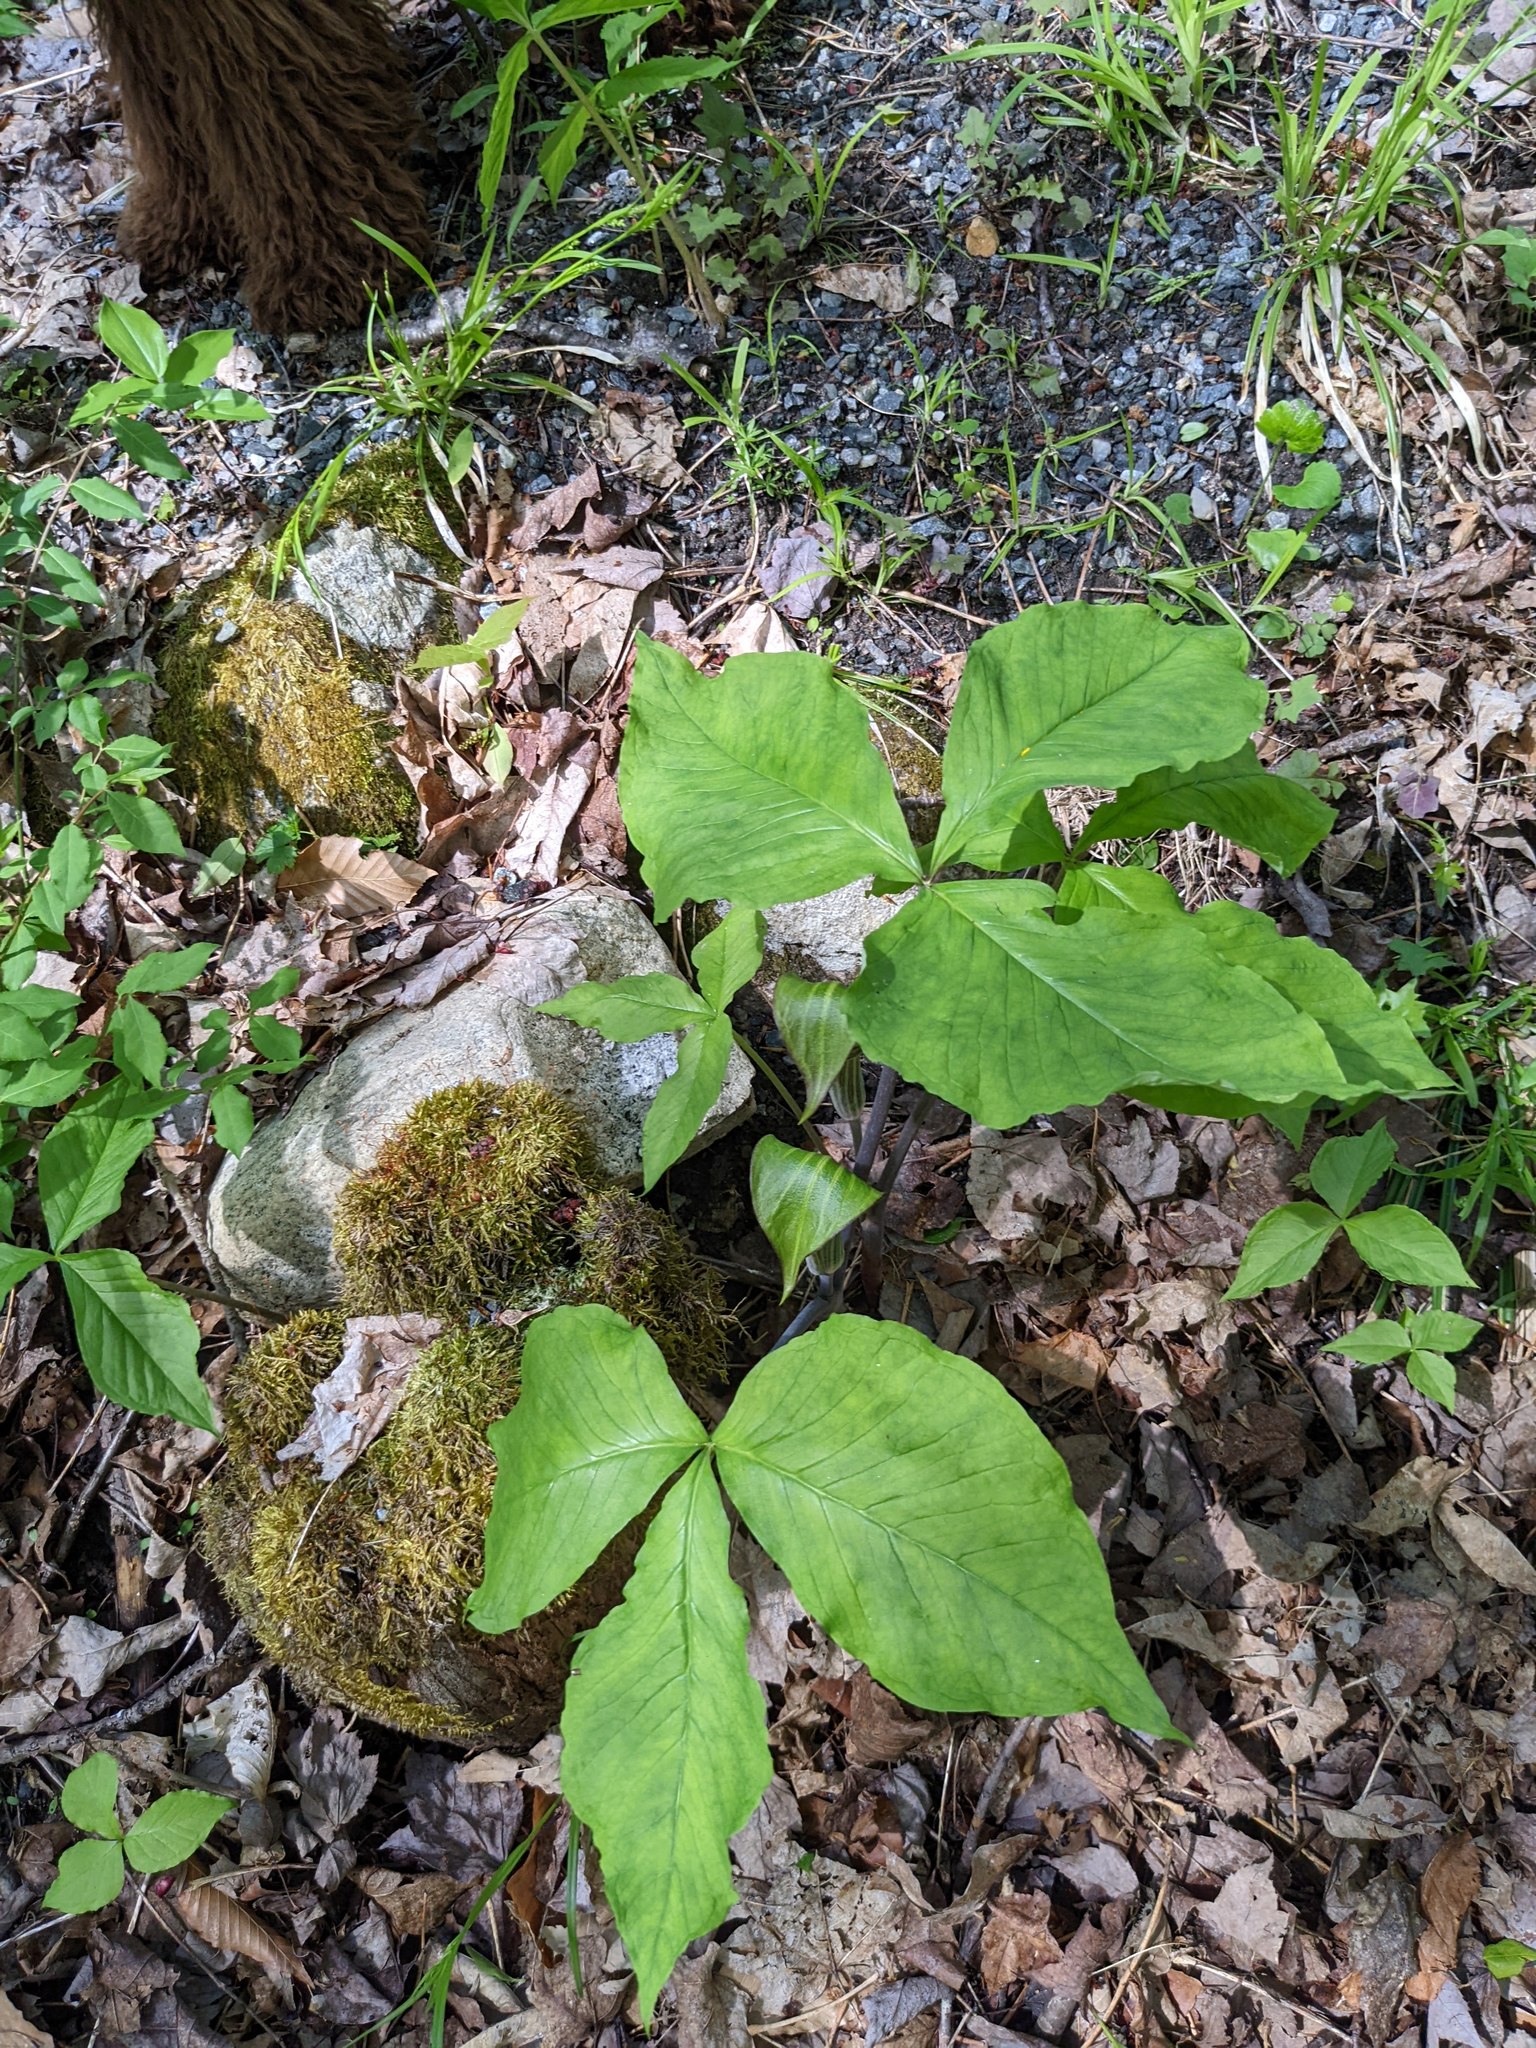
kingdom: Plantae
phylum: Tracheophyta
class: Liliopsida
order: Alismatales
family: Araceae
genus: Arisaema
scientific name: Arisaema triphyllum
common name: Jack-in-the-pulpit
